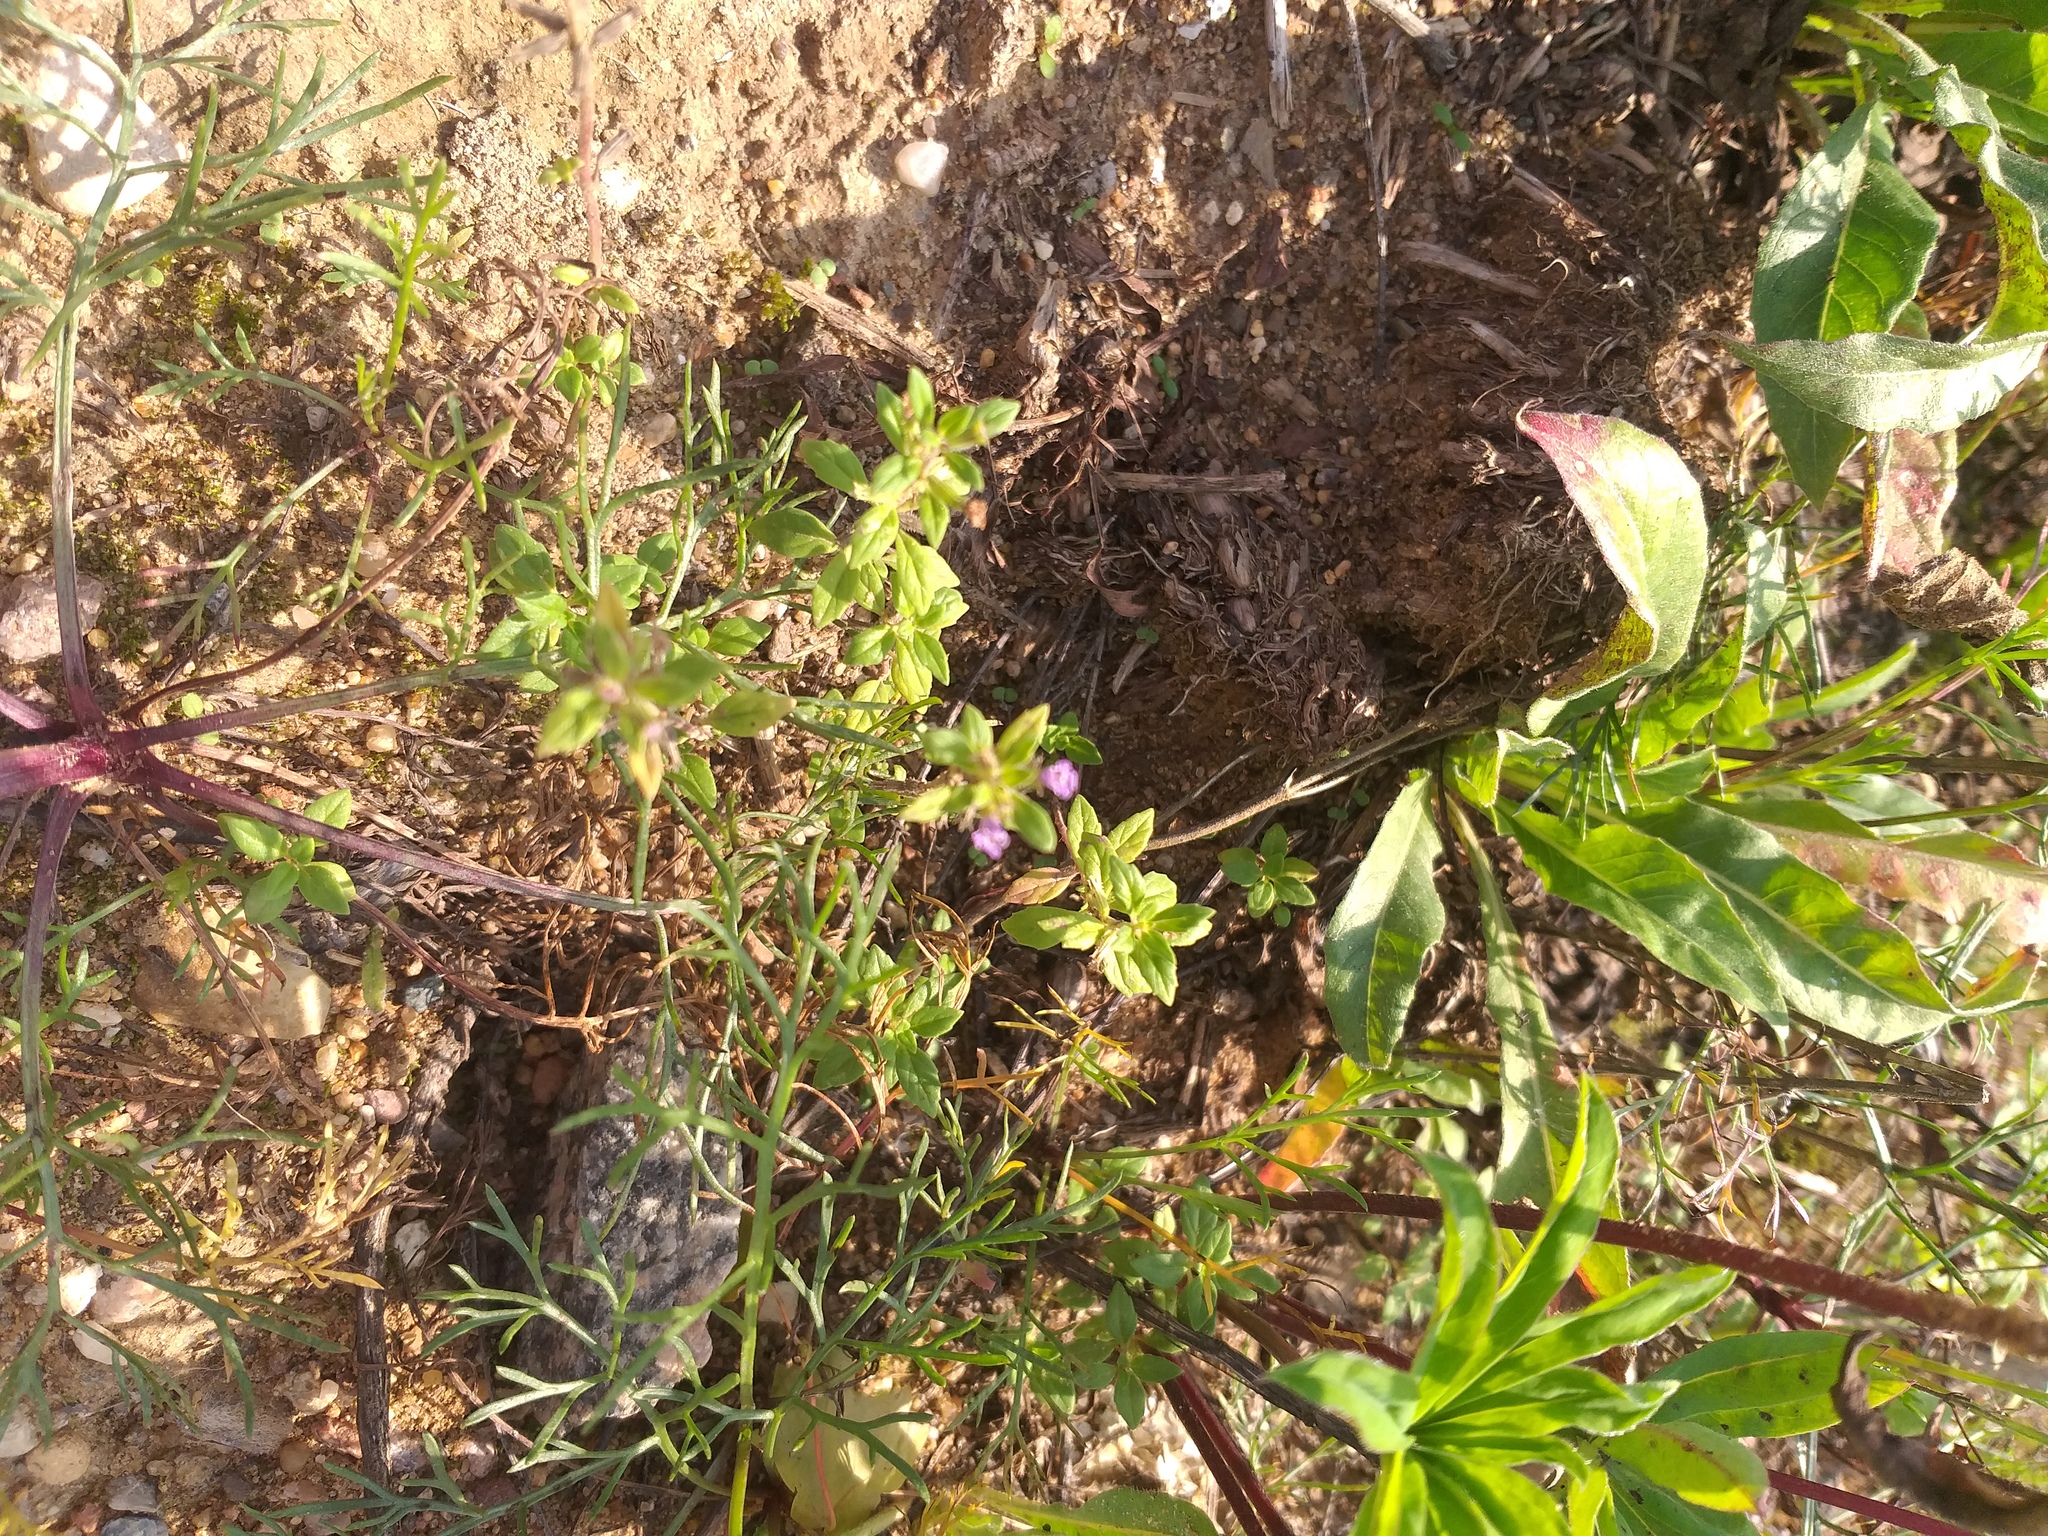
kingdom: Plantae
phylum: Tracheophyta
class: Magnoliopsida
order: Lamiales
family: Lamiaceae
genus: Clinopodium
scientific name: Clinopodium acinos
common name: Basil thyme
